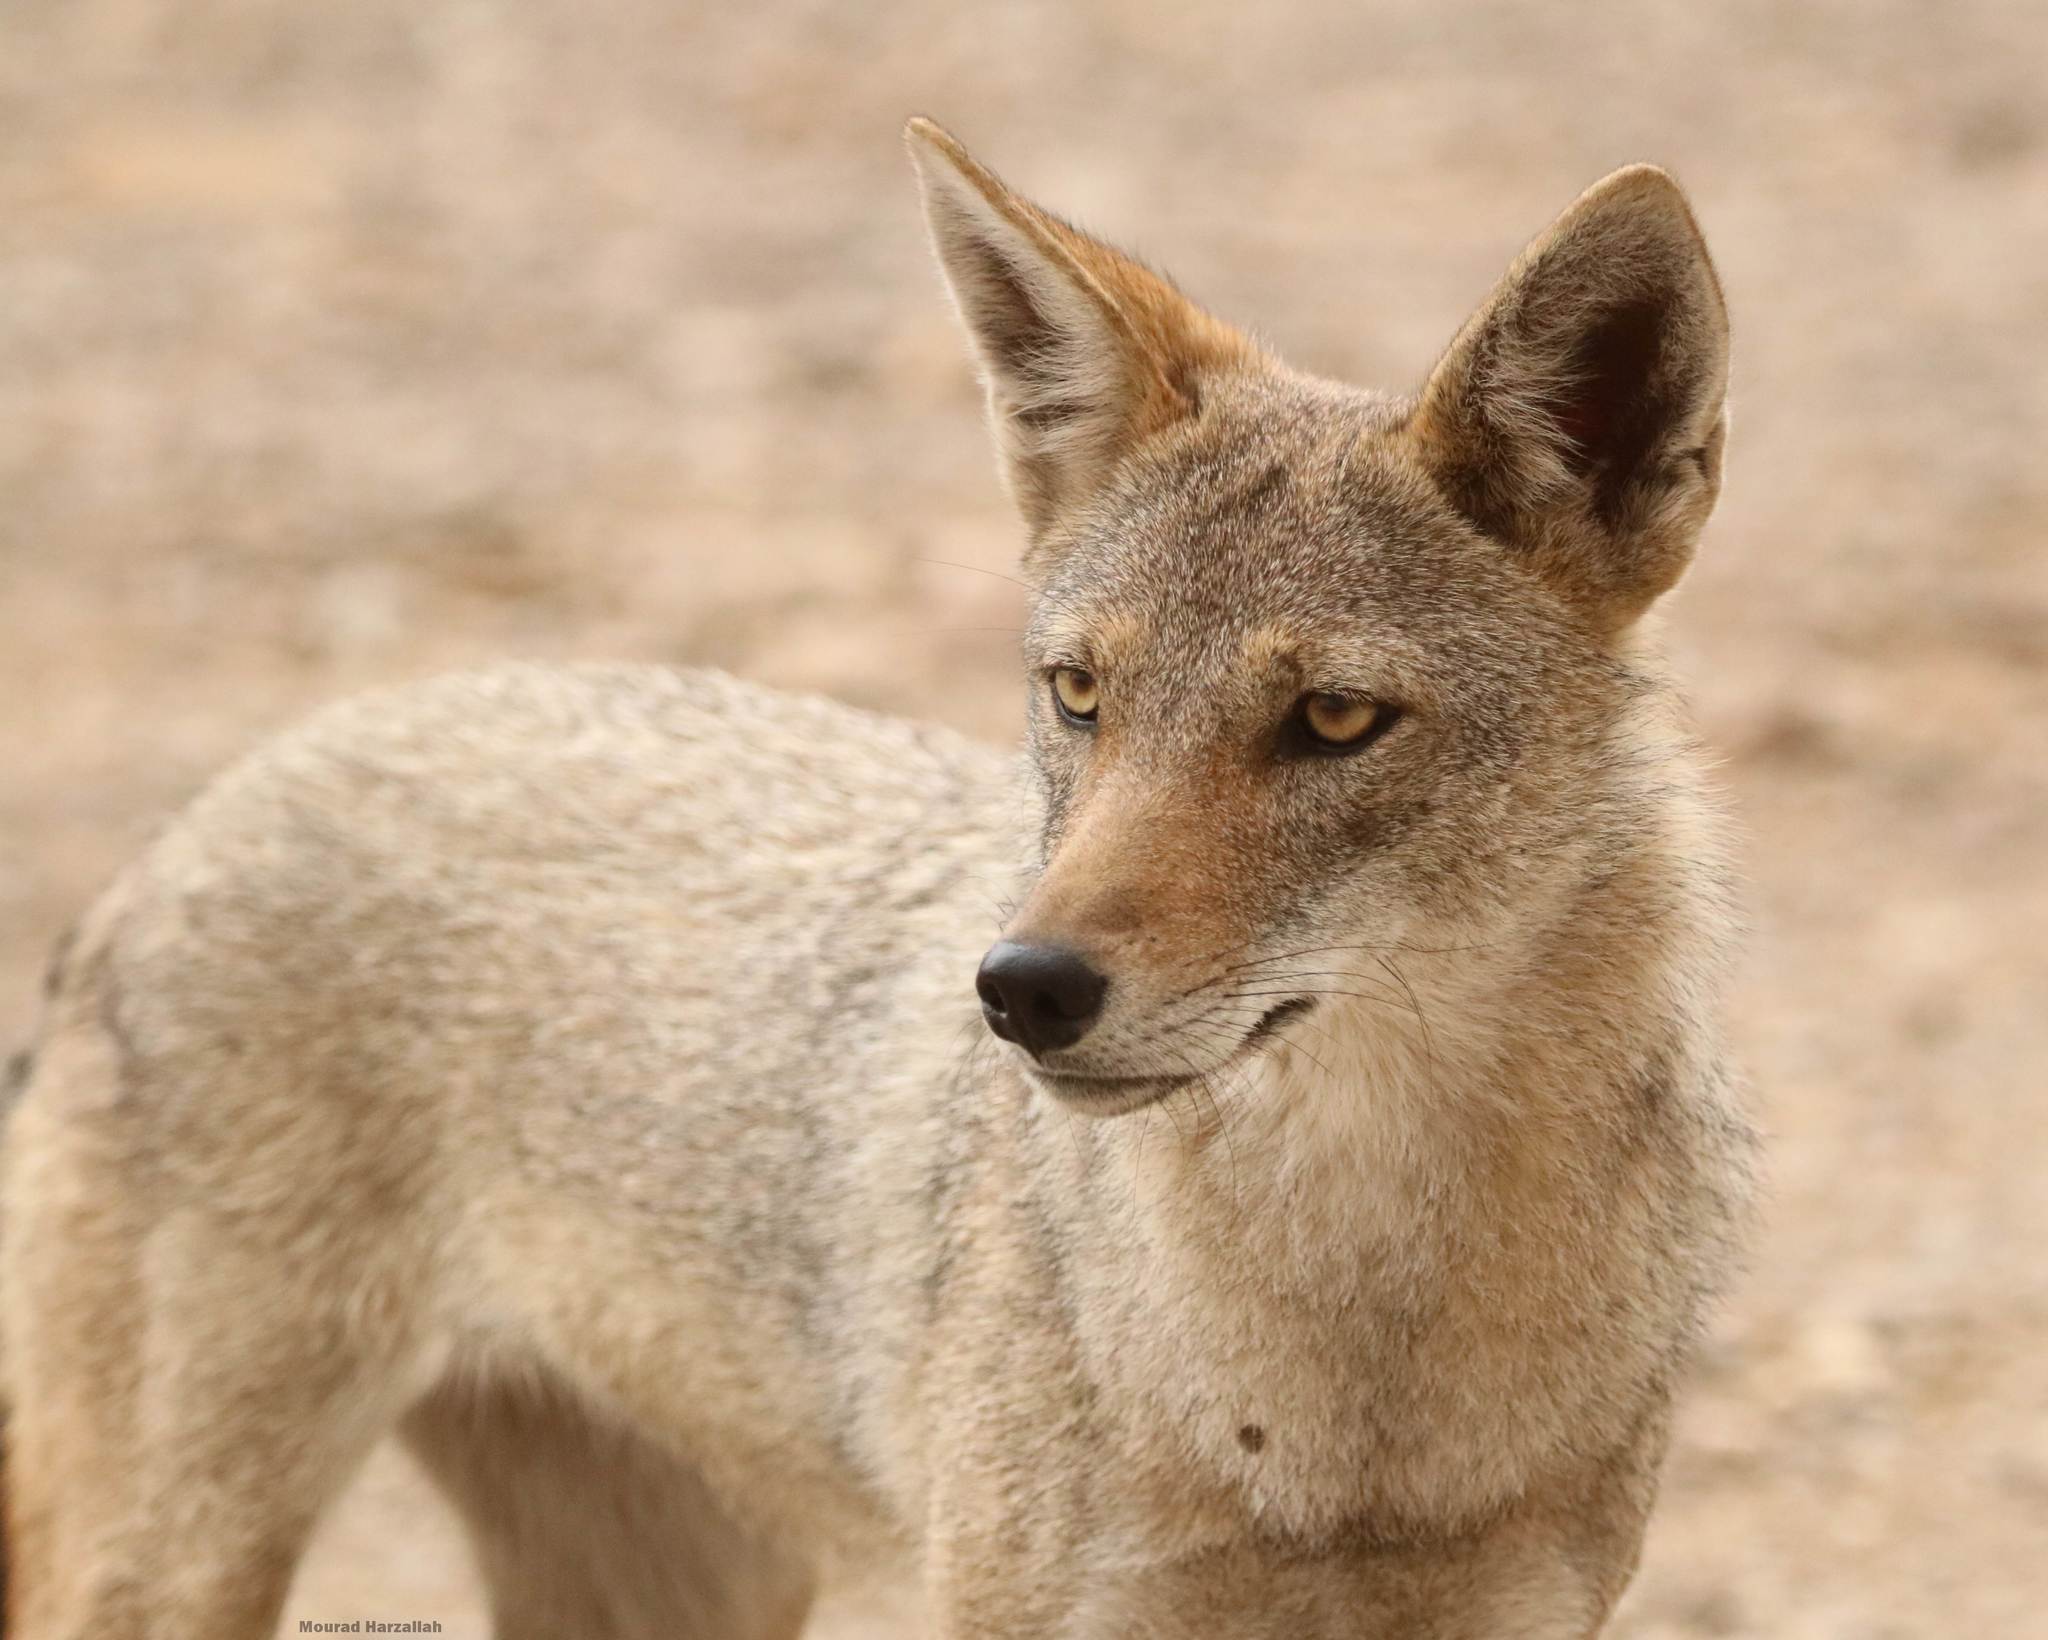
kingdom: Animalia
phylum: Chordata
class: Mammalia
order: Carnivora
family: Canidae
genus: Canis
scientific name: Canis lupaster
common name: African golden wolf
